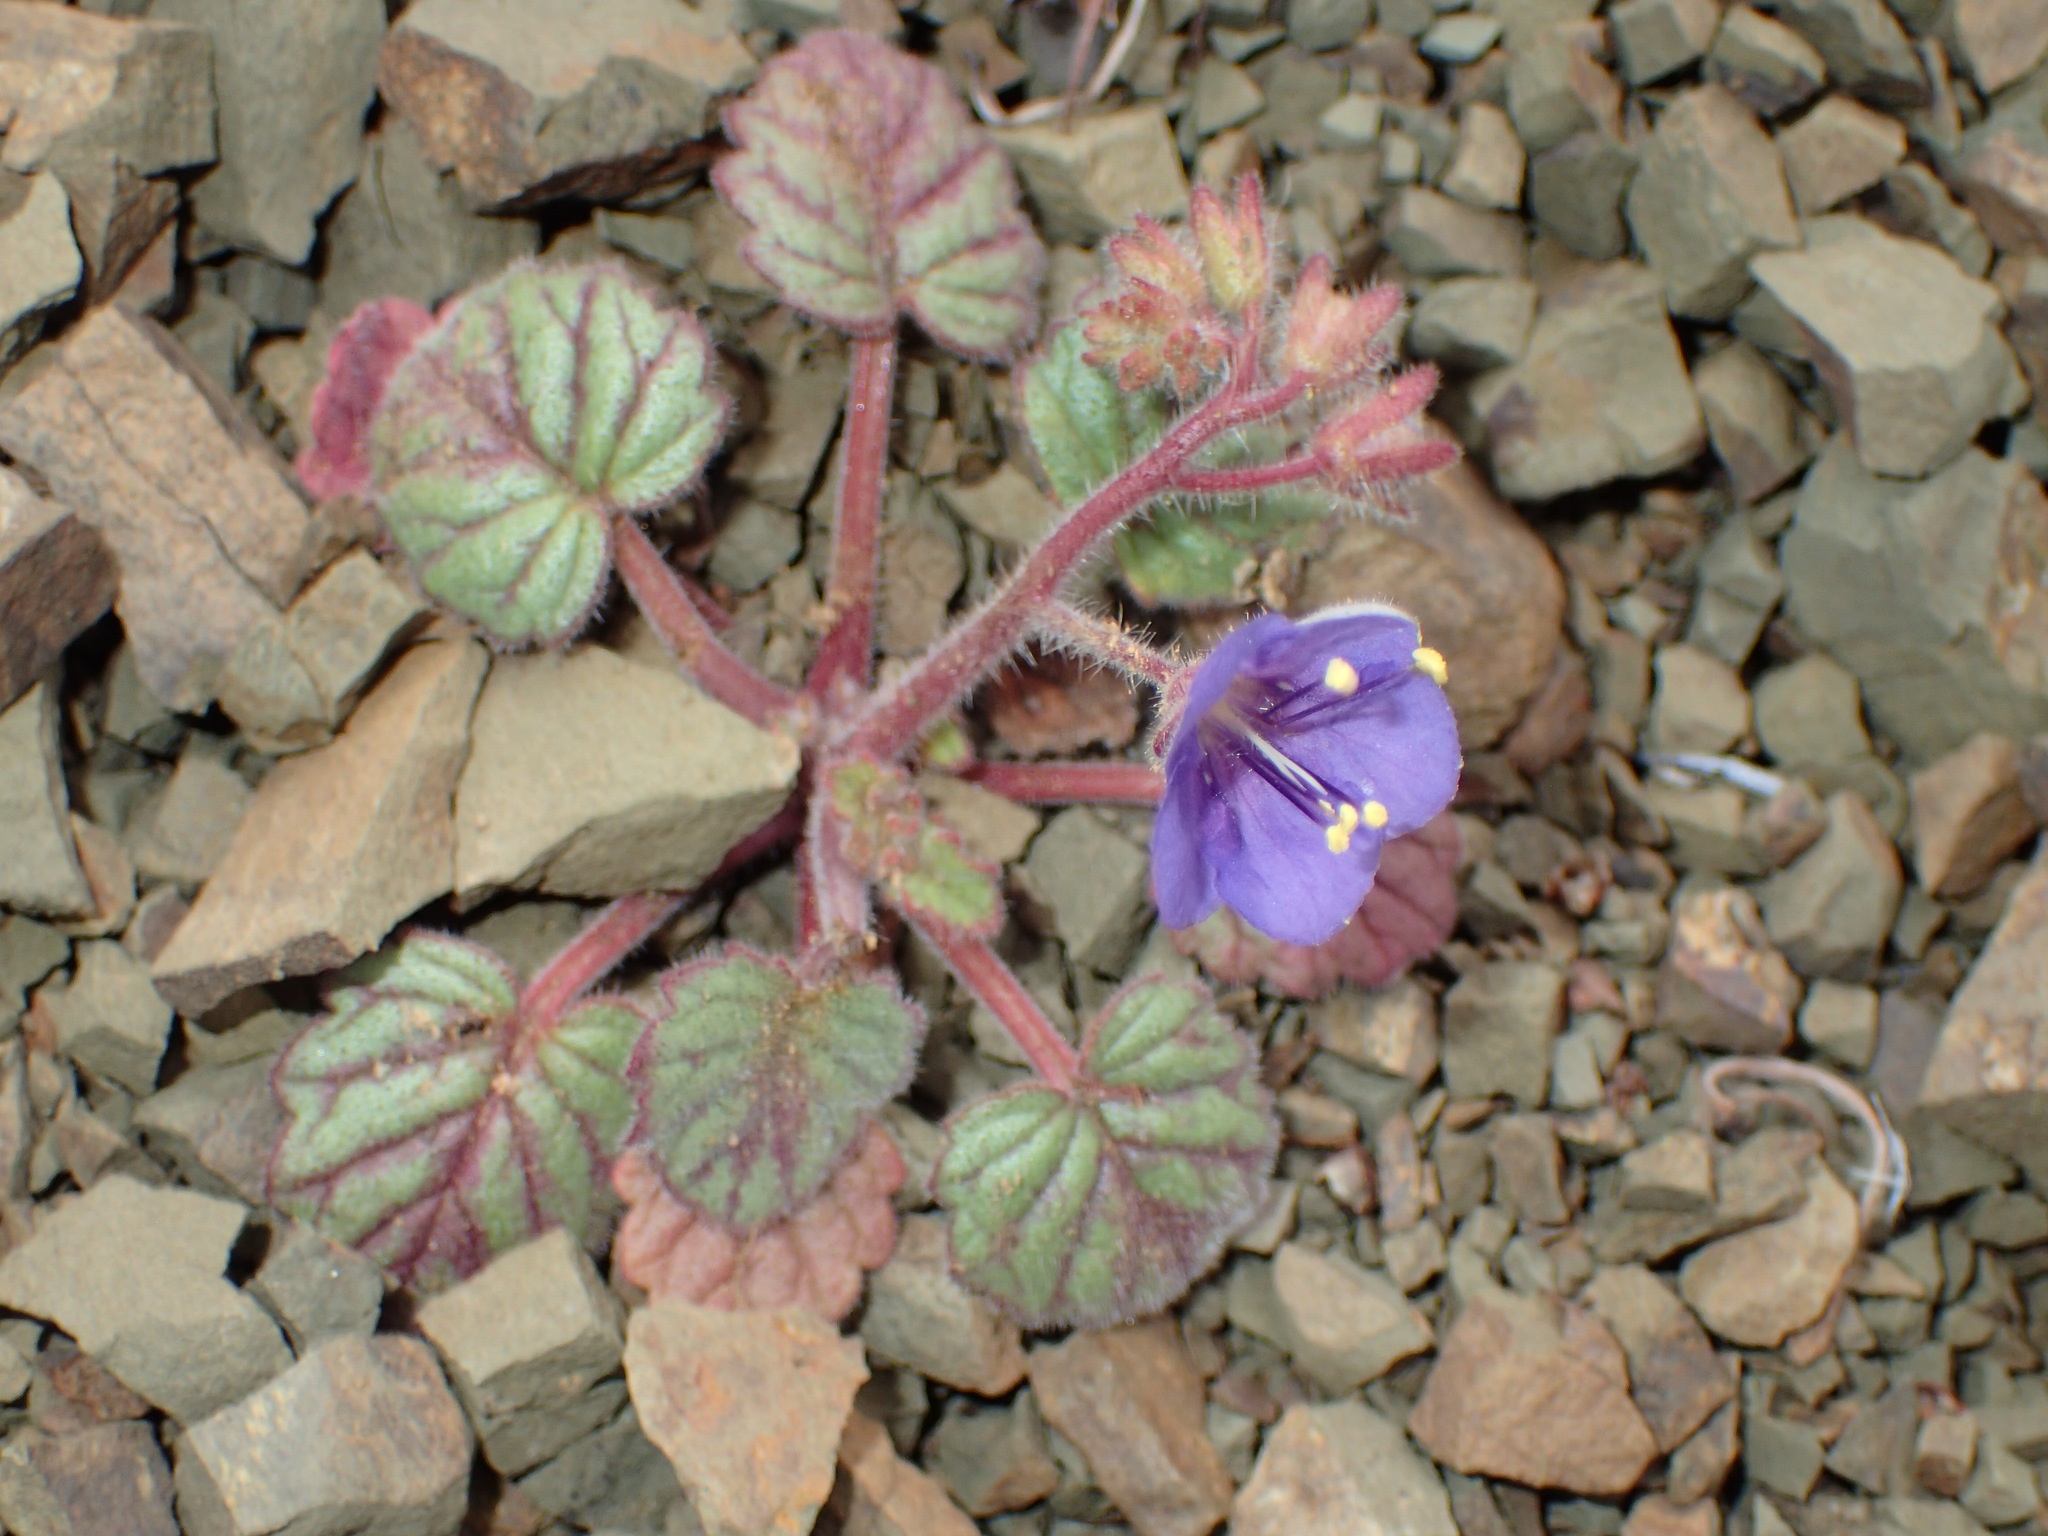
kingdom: Plantae
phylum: Tracheophyta
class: Magnoliopsida
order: Boraginales
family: Hydrophyllaceae
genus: Phacelia
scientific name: Phacelia longipes
